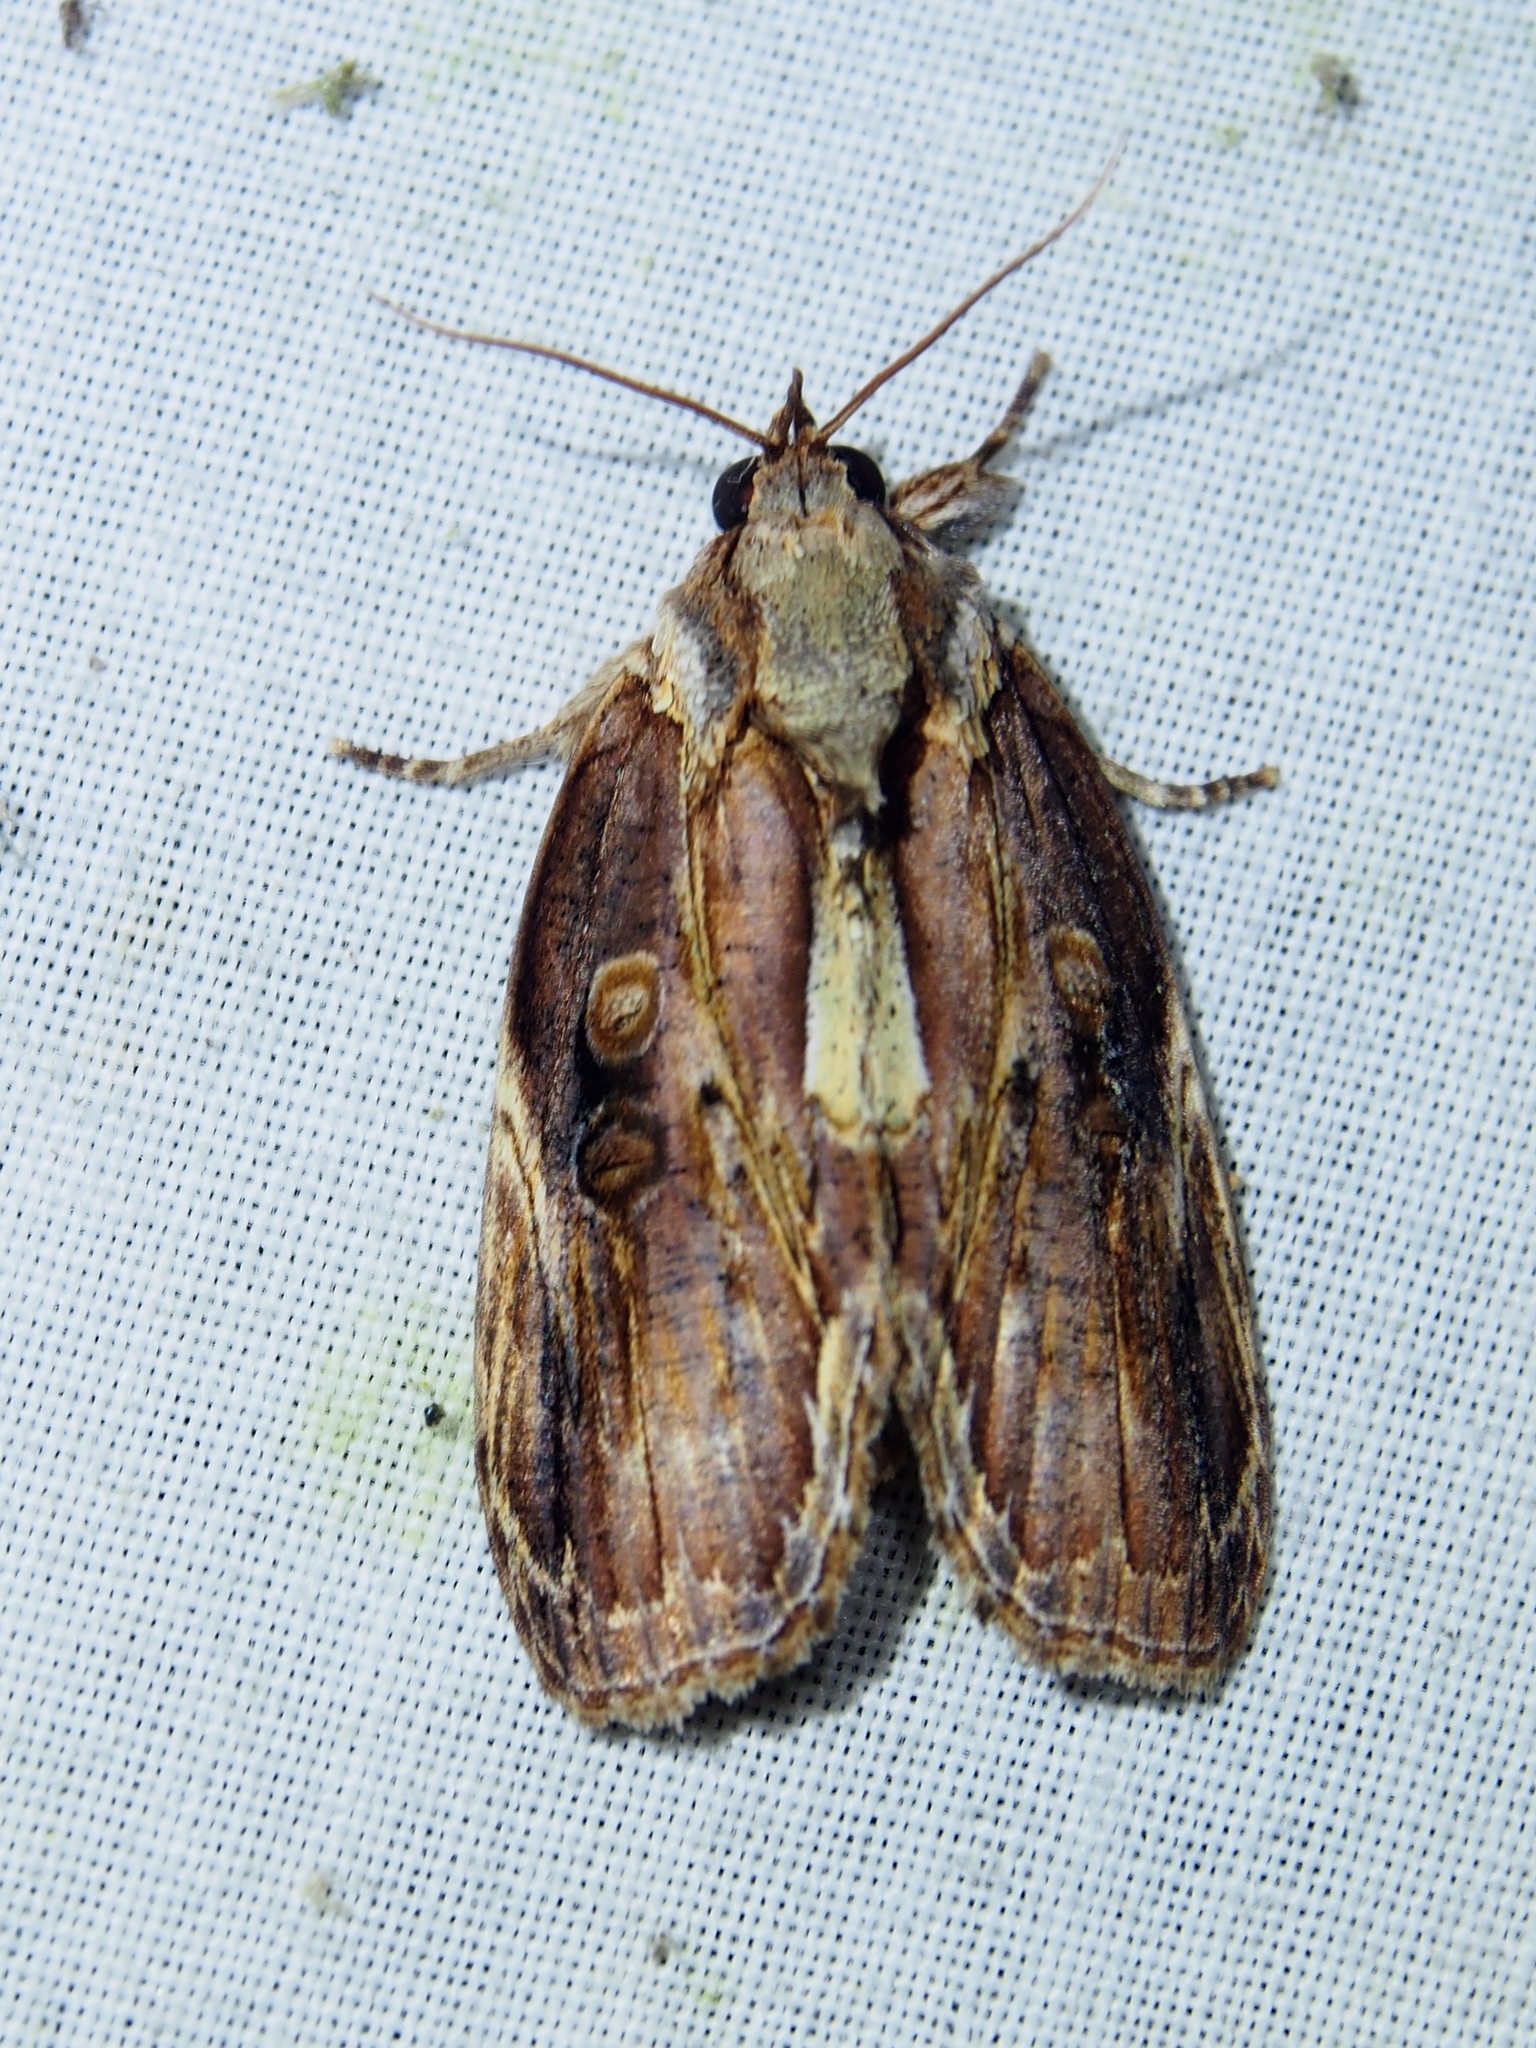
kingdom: Animalia
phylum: Arthropoda
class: Insecta
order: Lepidoptera
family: Nolidae
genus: Iscadia
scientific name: Iscadia purpurascens
